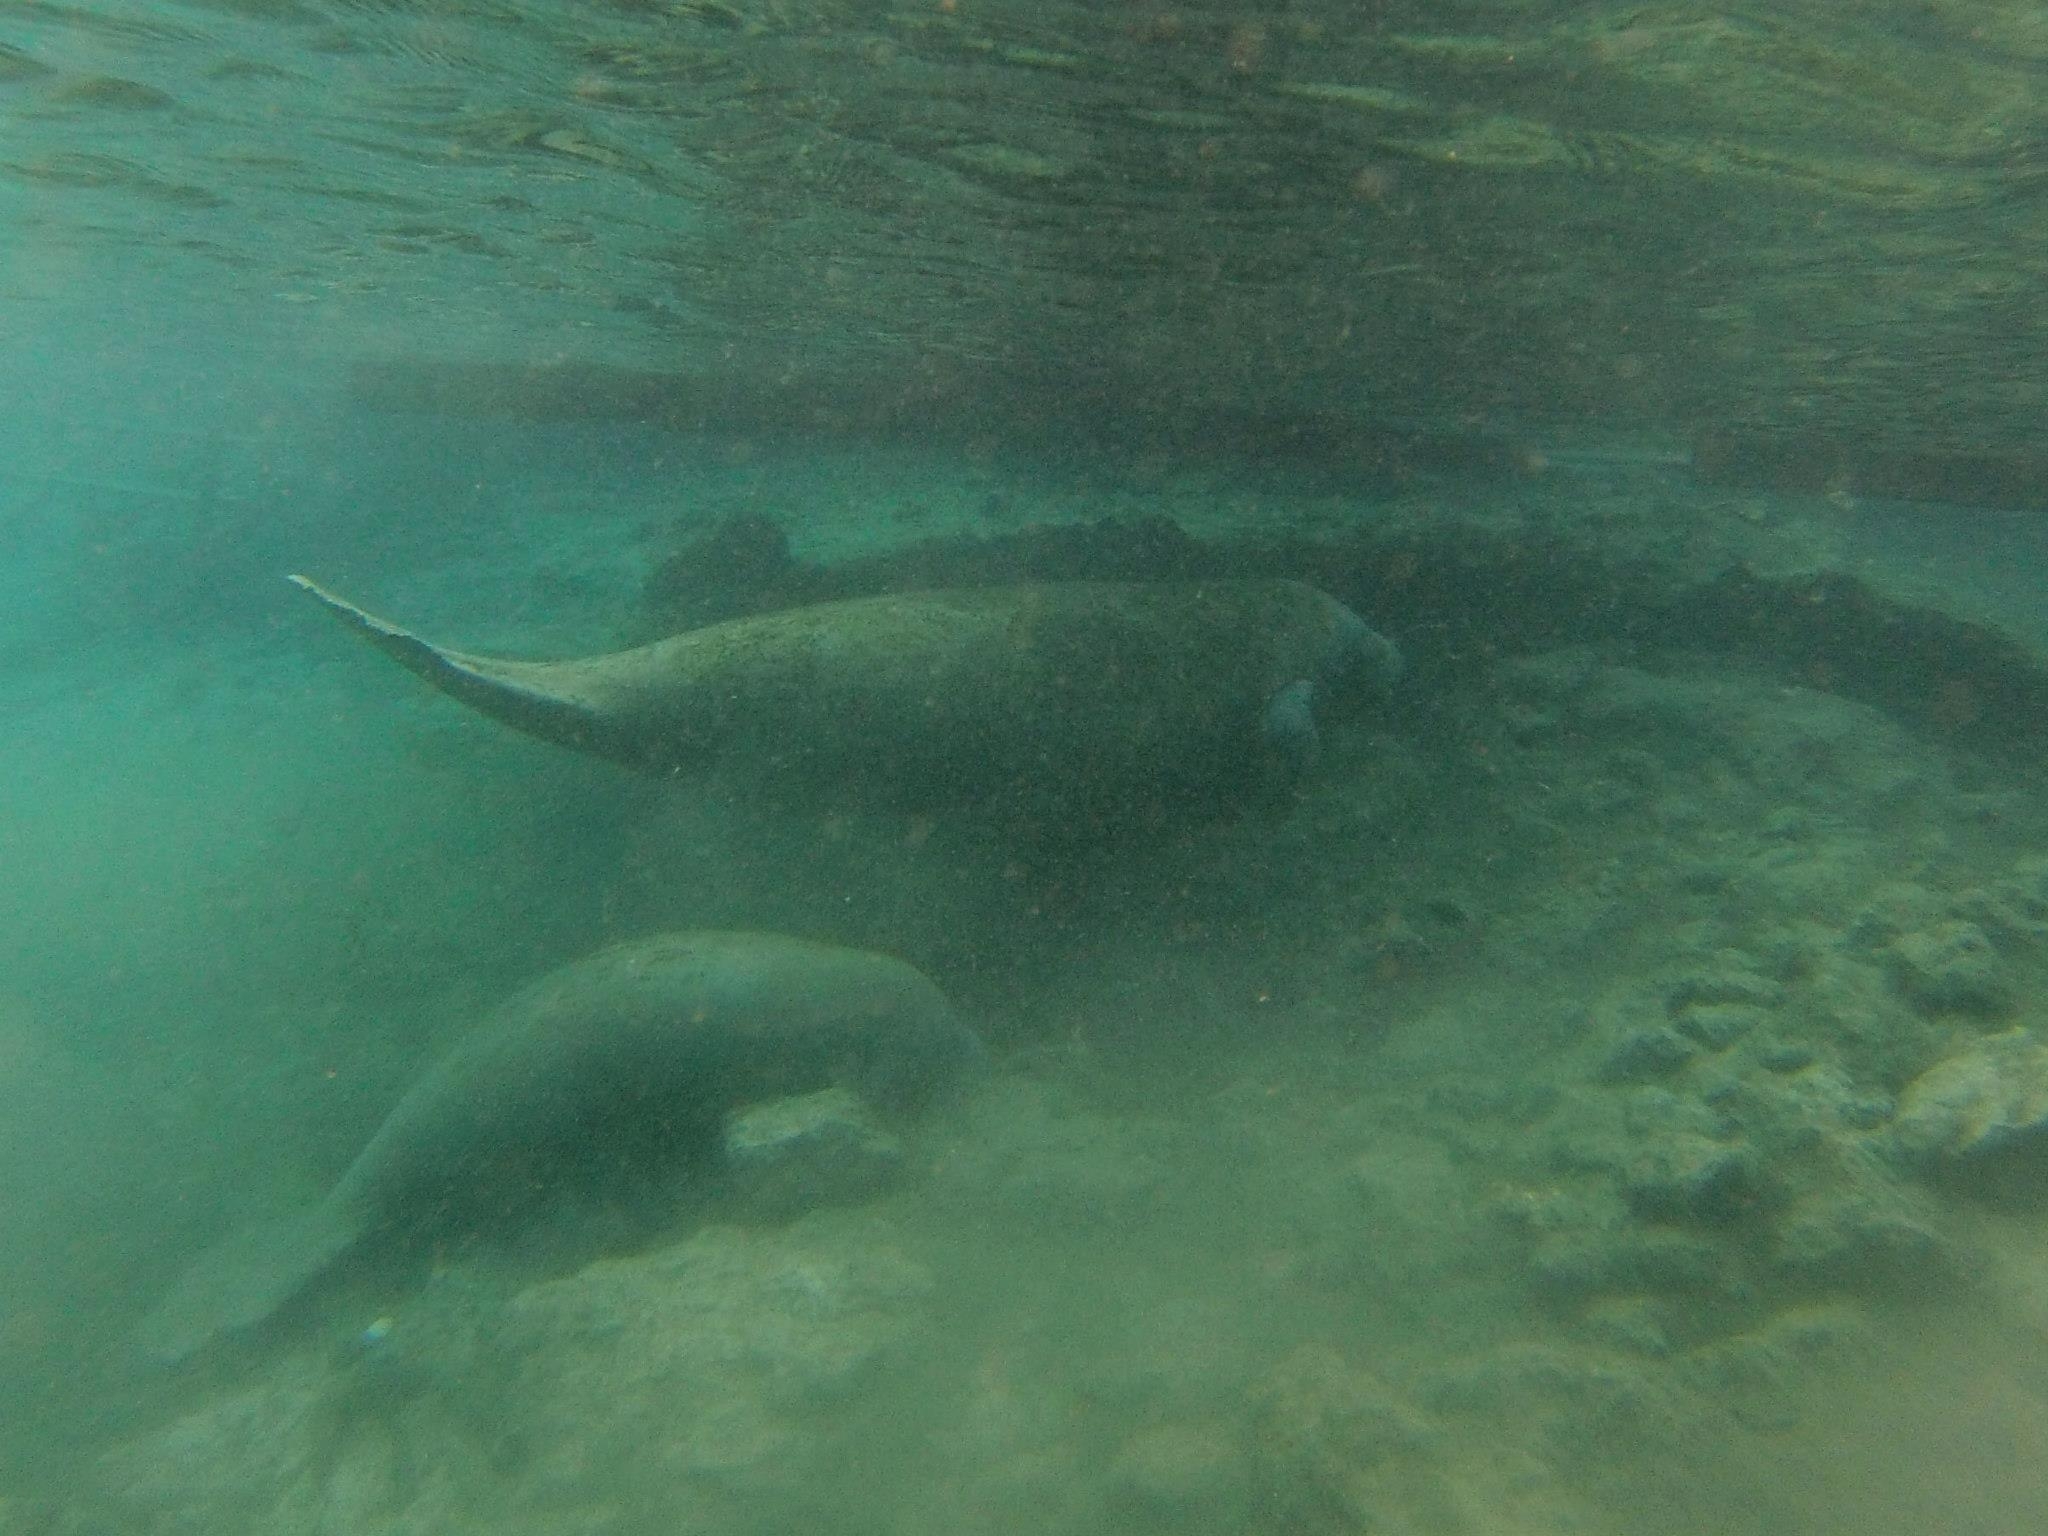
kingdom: Animalia
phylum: Chordata
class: Mammalia
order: Sirenia
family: Trichechidae
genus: Trichechus
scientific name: Trichechus manatus
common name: West indian manatee
